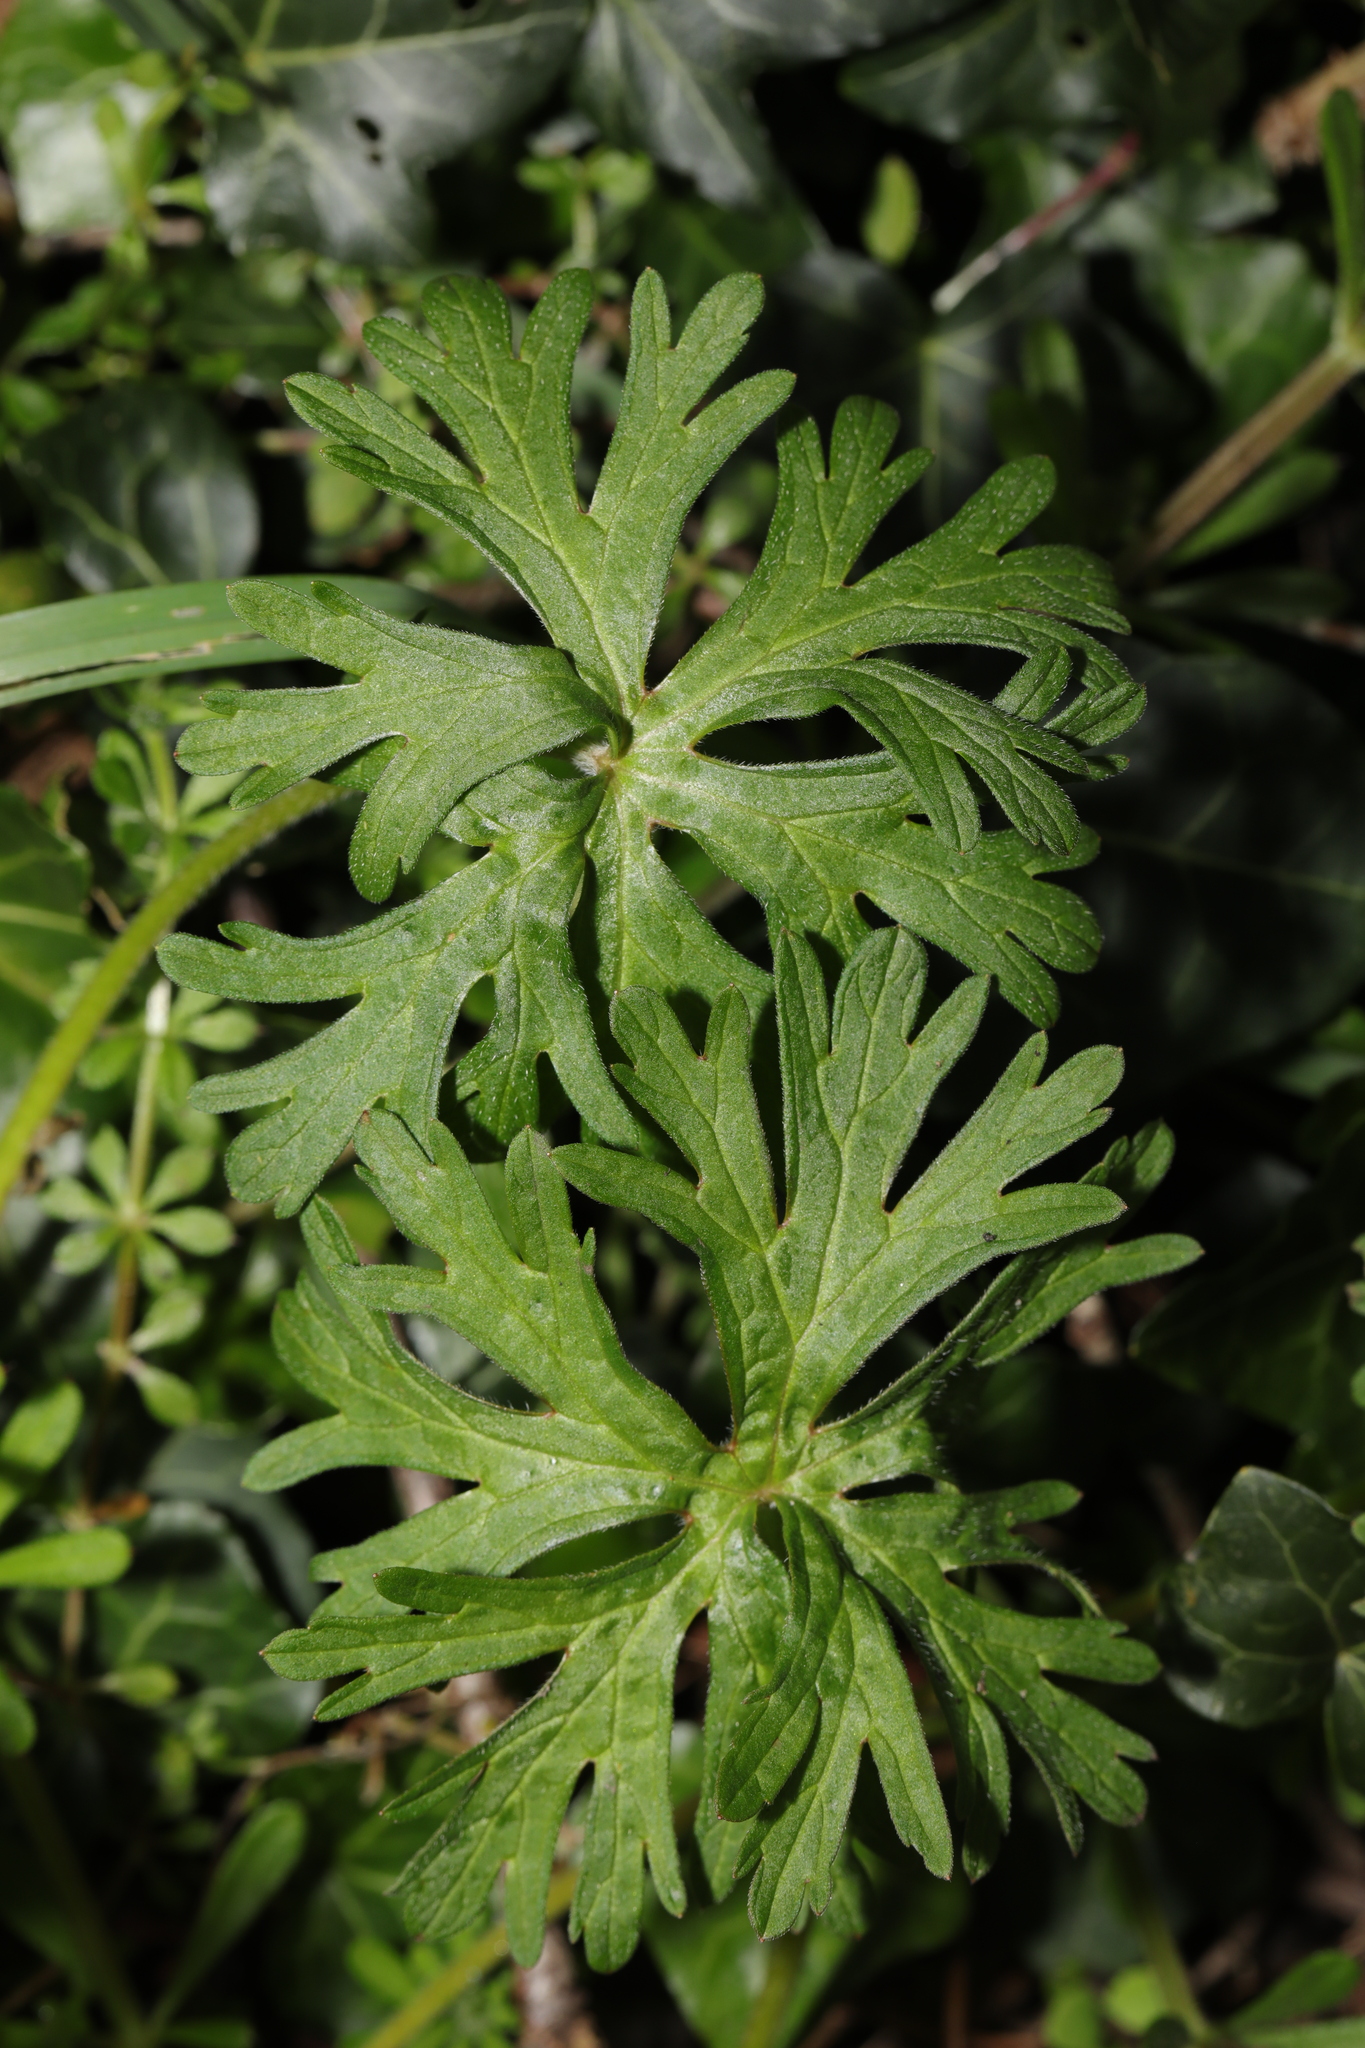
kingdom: Plantae
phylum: Tracheophyta
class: Magnoliopsida
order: Geraniales
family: Geraniaceae
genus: Geranium
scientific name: Geranium dissectum
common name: Cut-leaved crane's-bill
